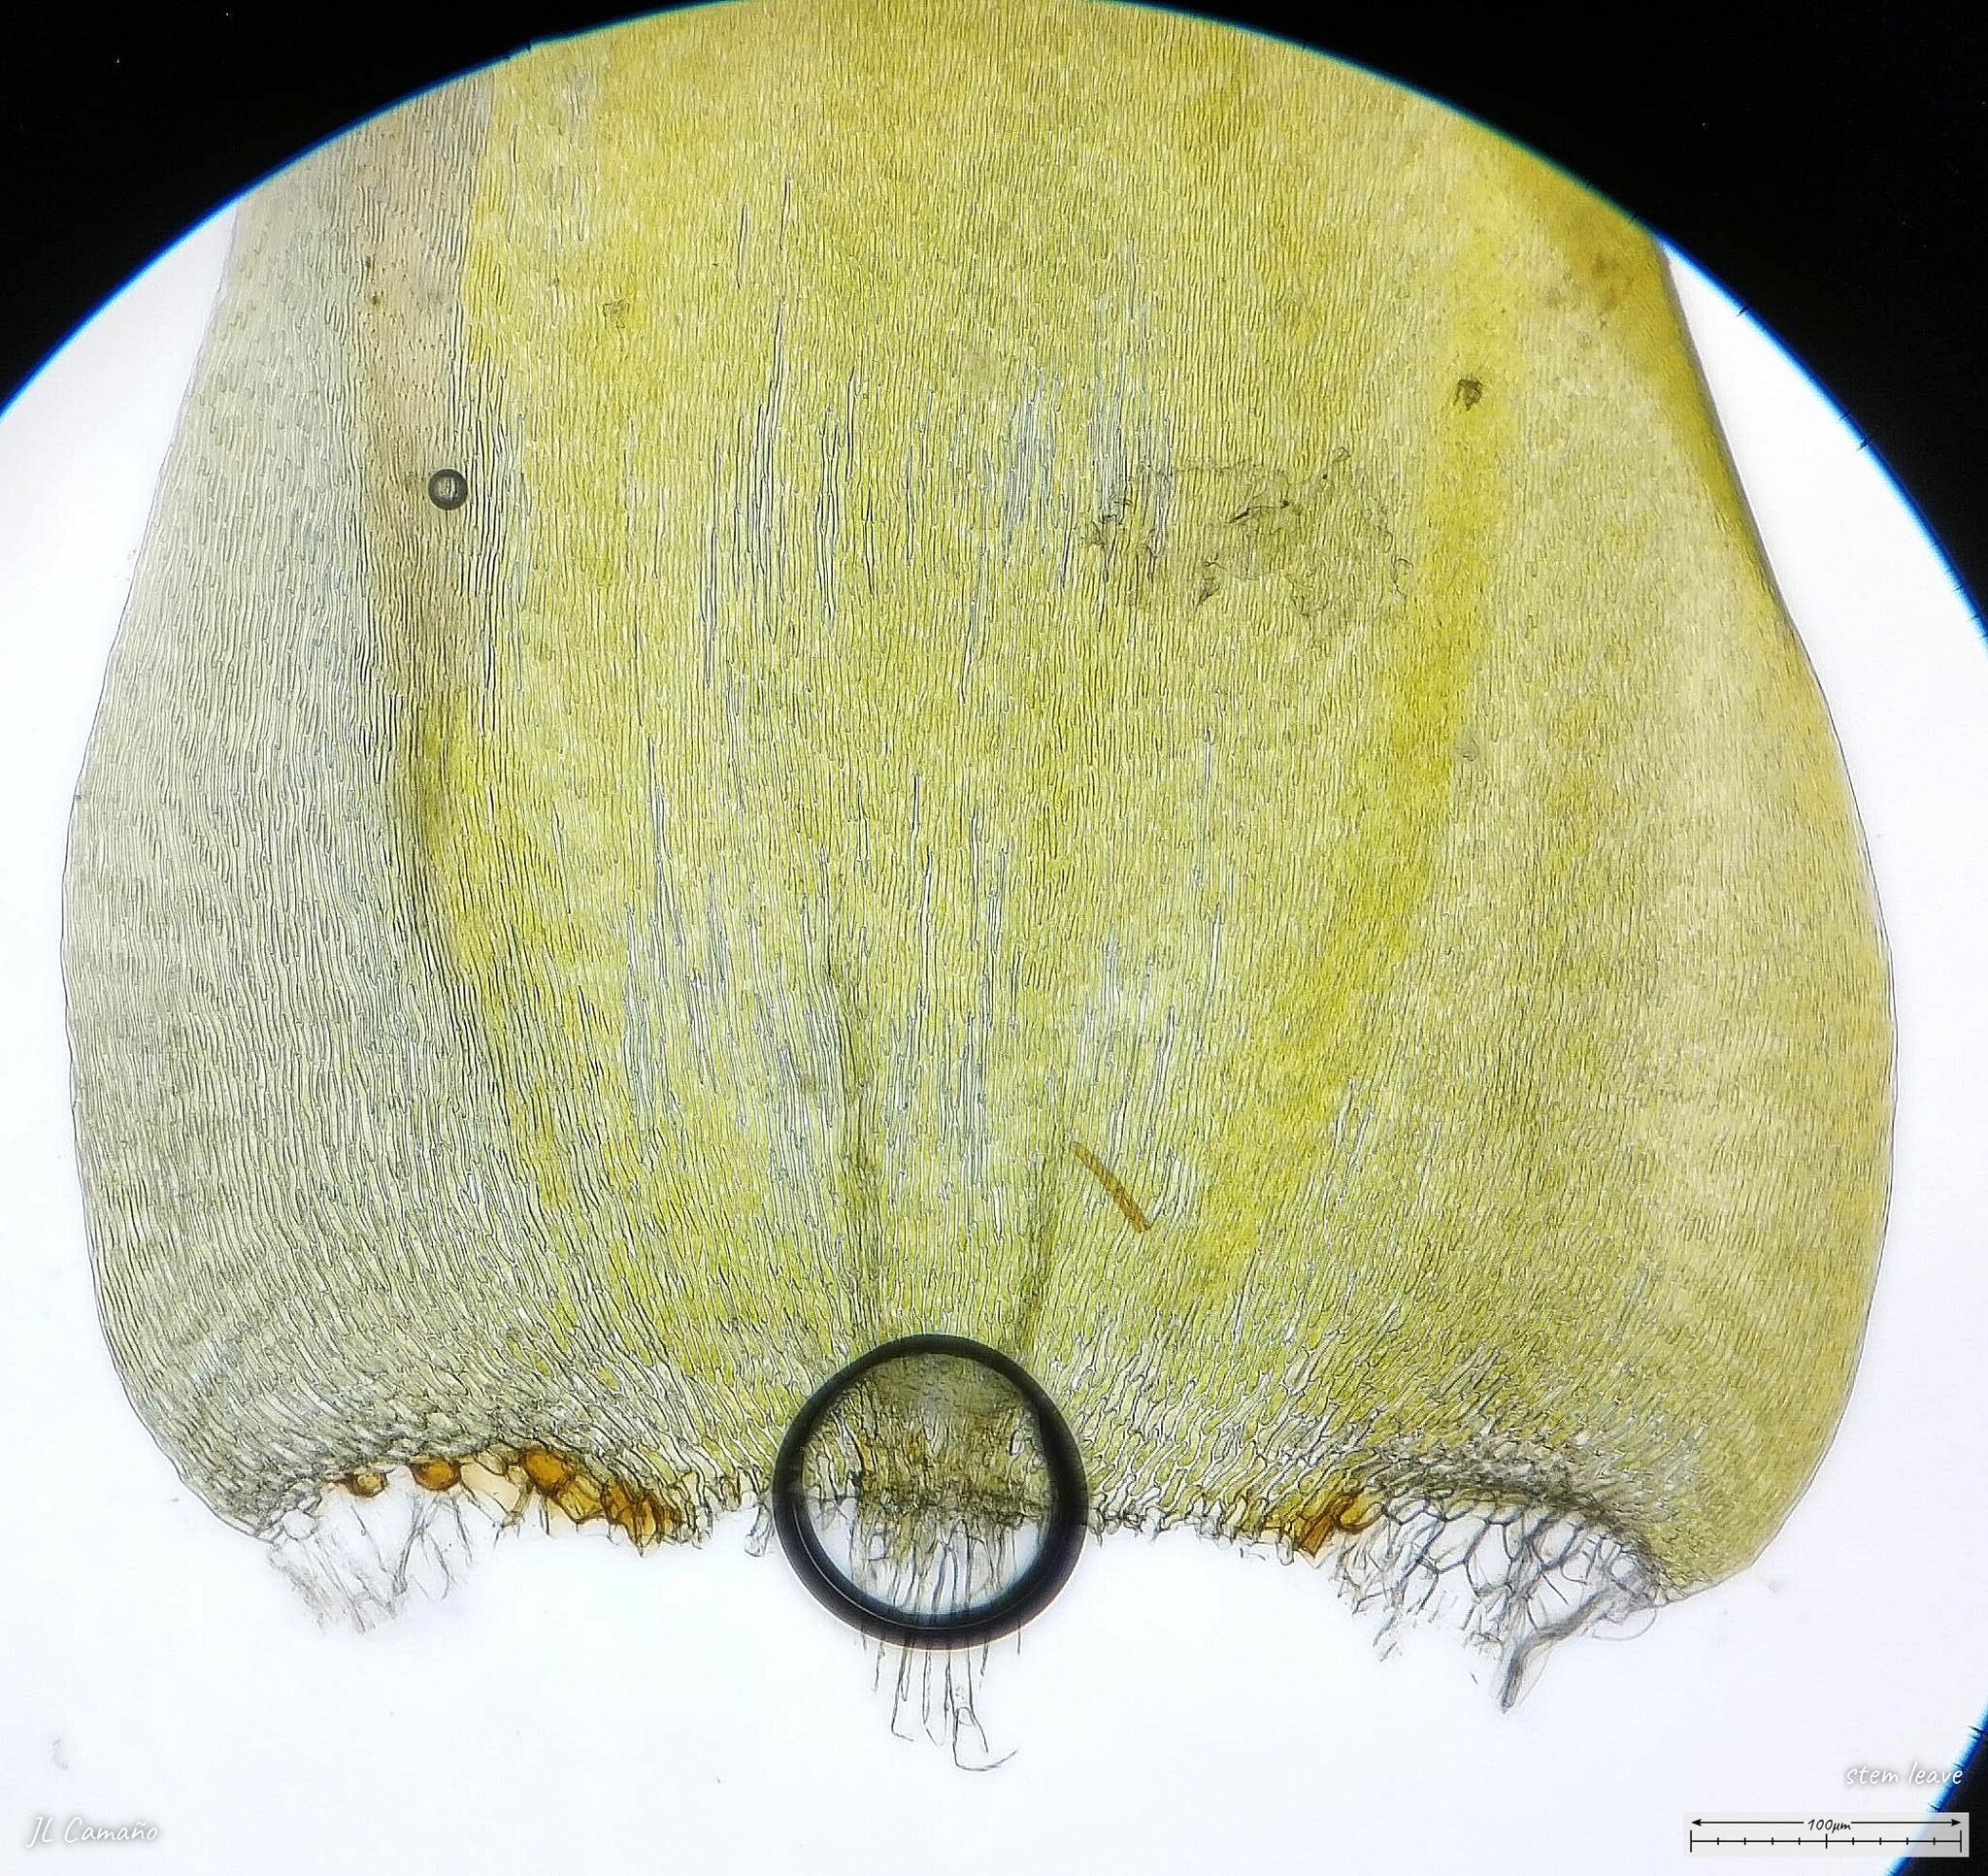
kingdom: Plantae
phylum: Bryophyta
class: Bryopsida
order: Hypnales
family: Pylaisiaceae
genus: Calliergonella
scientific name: Calliergonella cuspidata
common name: Common large wetland moss
